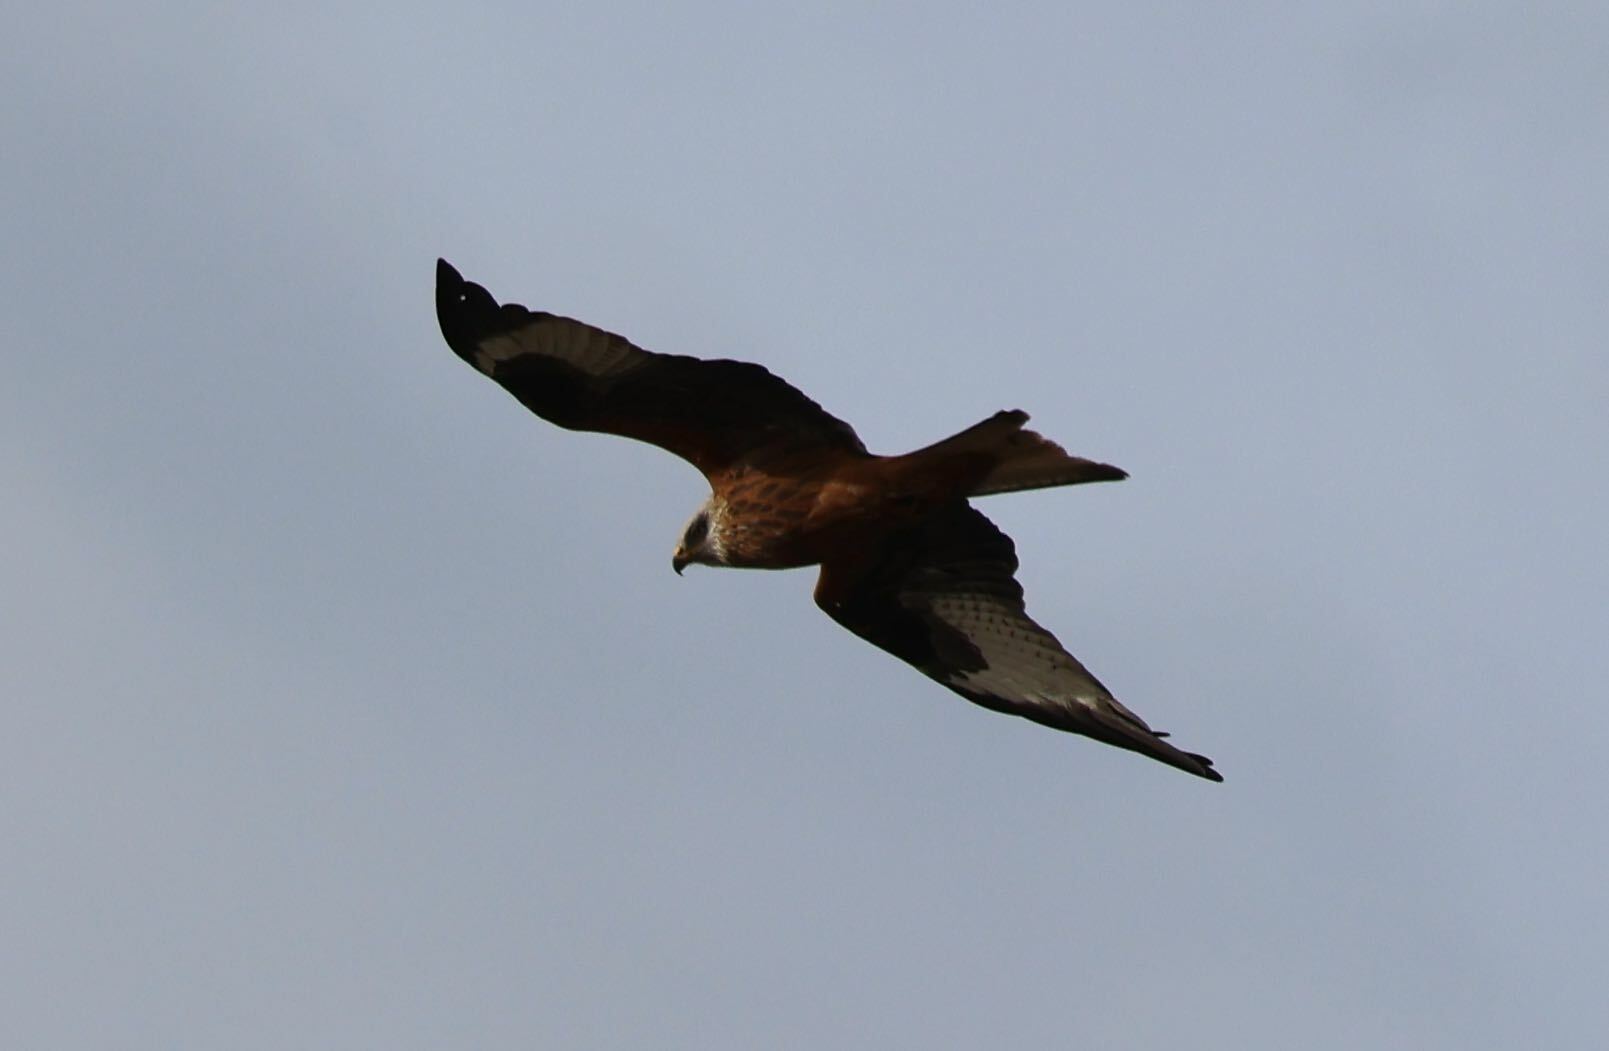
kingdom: Animalia
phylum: Chordata
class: Aves
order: Accipitriformes
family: Accipitridae
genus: Milvus
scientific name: Milvus milvus
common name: Red kite
